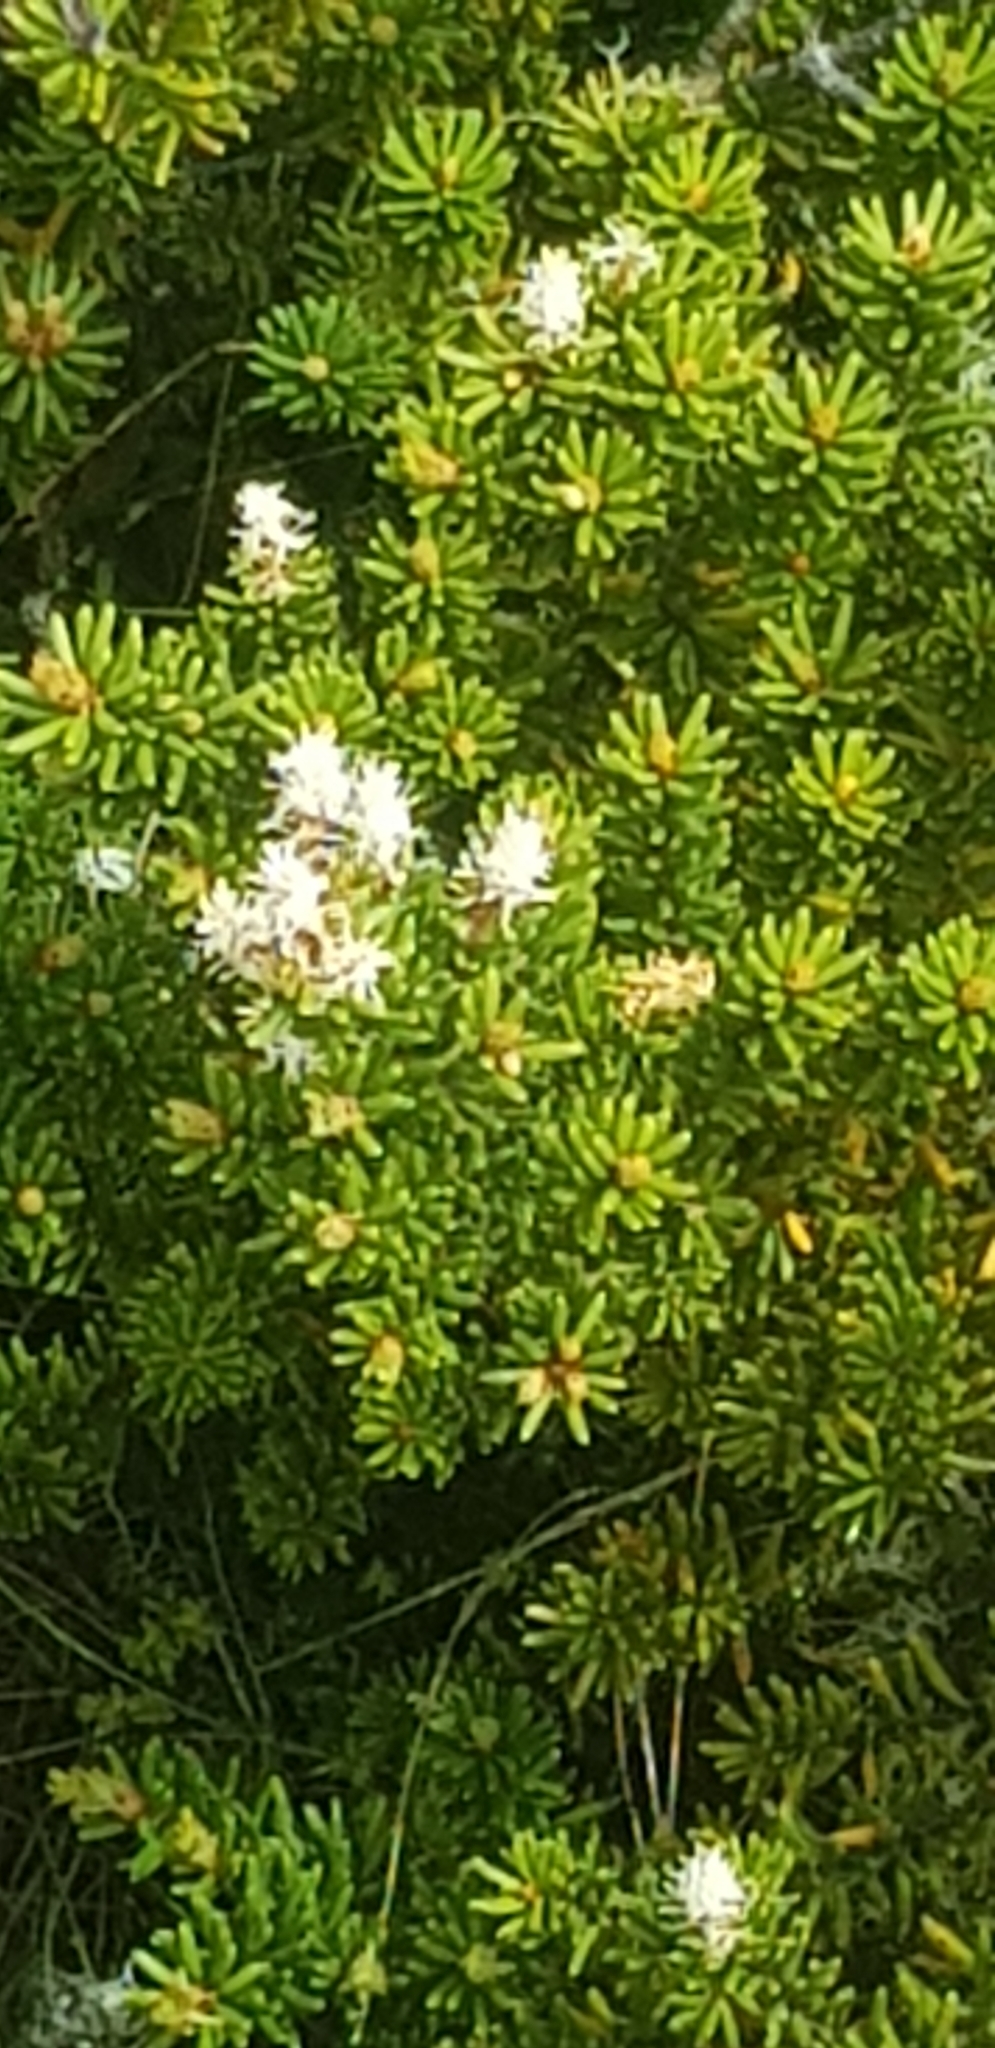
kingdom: Plantae
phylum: Tracheophyta
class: Magnoliopsida
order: Proteales
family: Proteaceae
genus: Orites
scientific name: Orites revolutus
